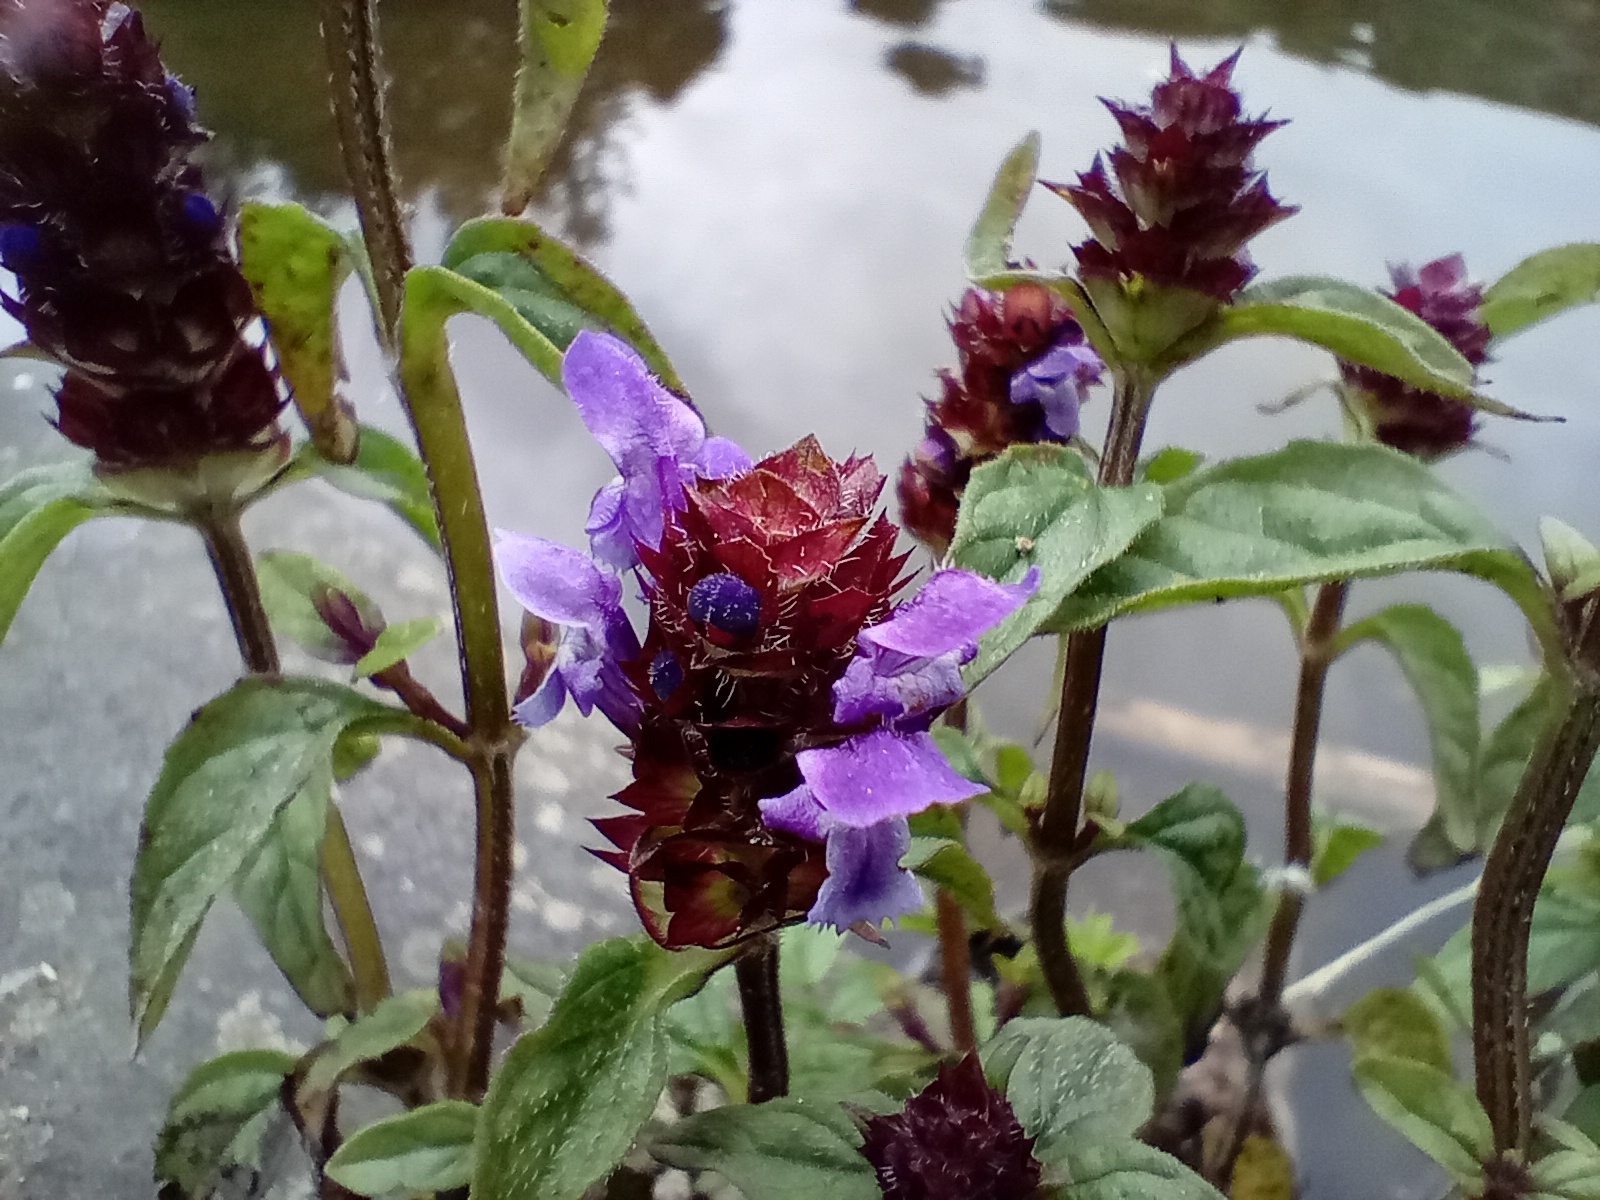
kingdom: Plantae
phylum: Tracheophyta
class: Magnoliopsida
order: Lamiales
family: Lamiaceae
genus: Prunella
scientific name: Prunella vulgaris
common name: Heal-all
